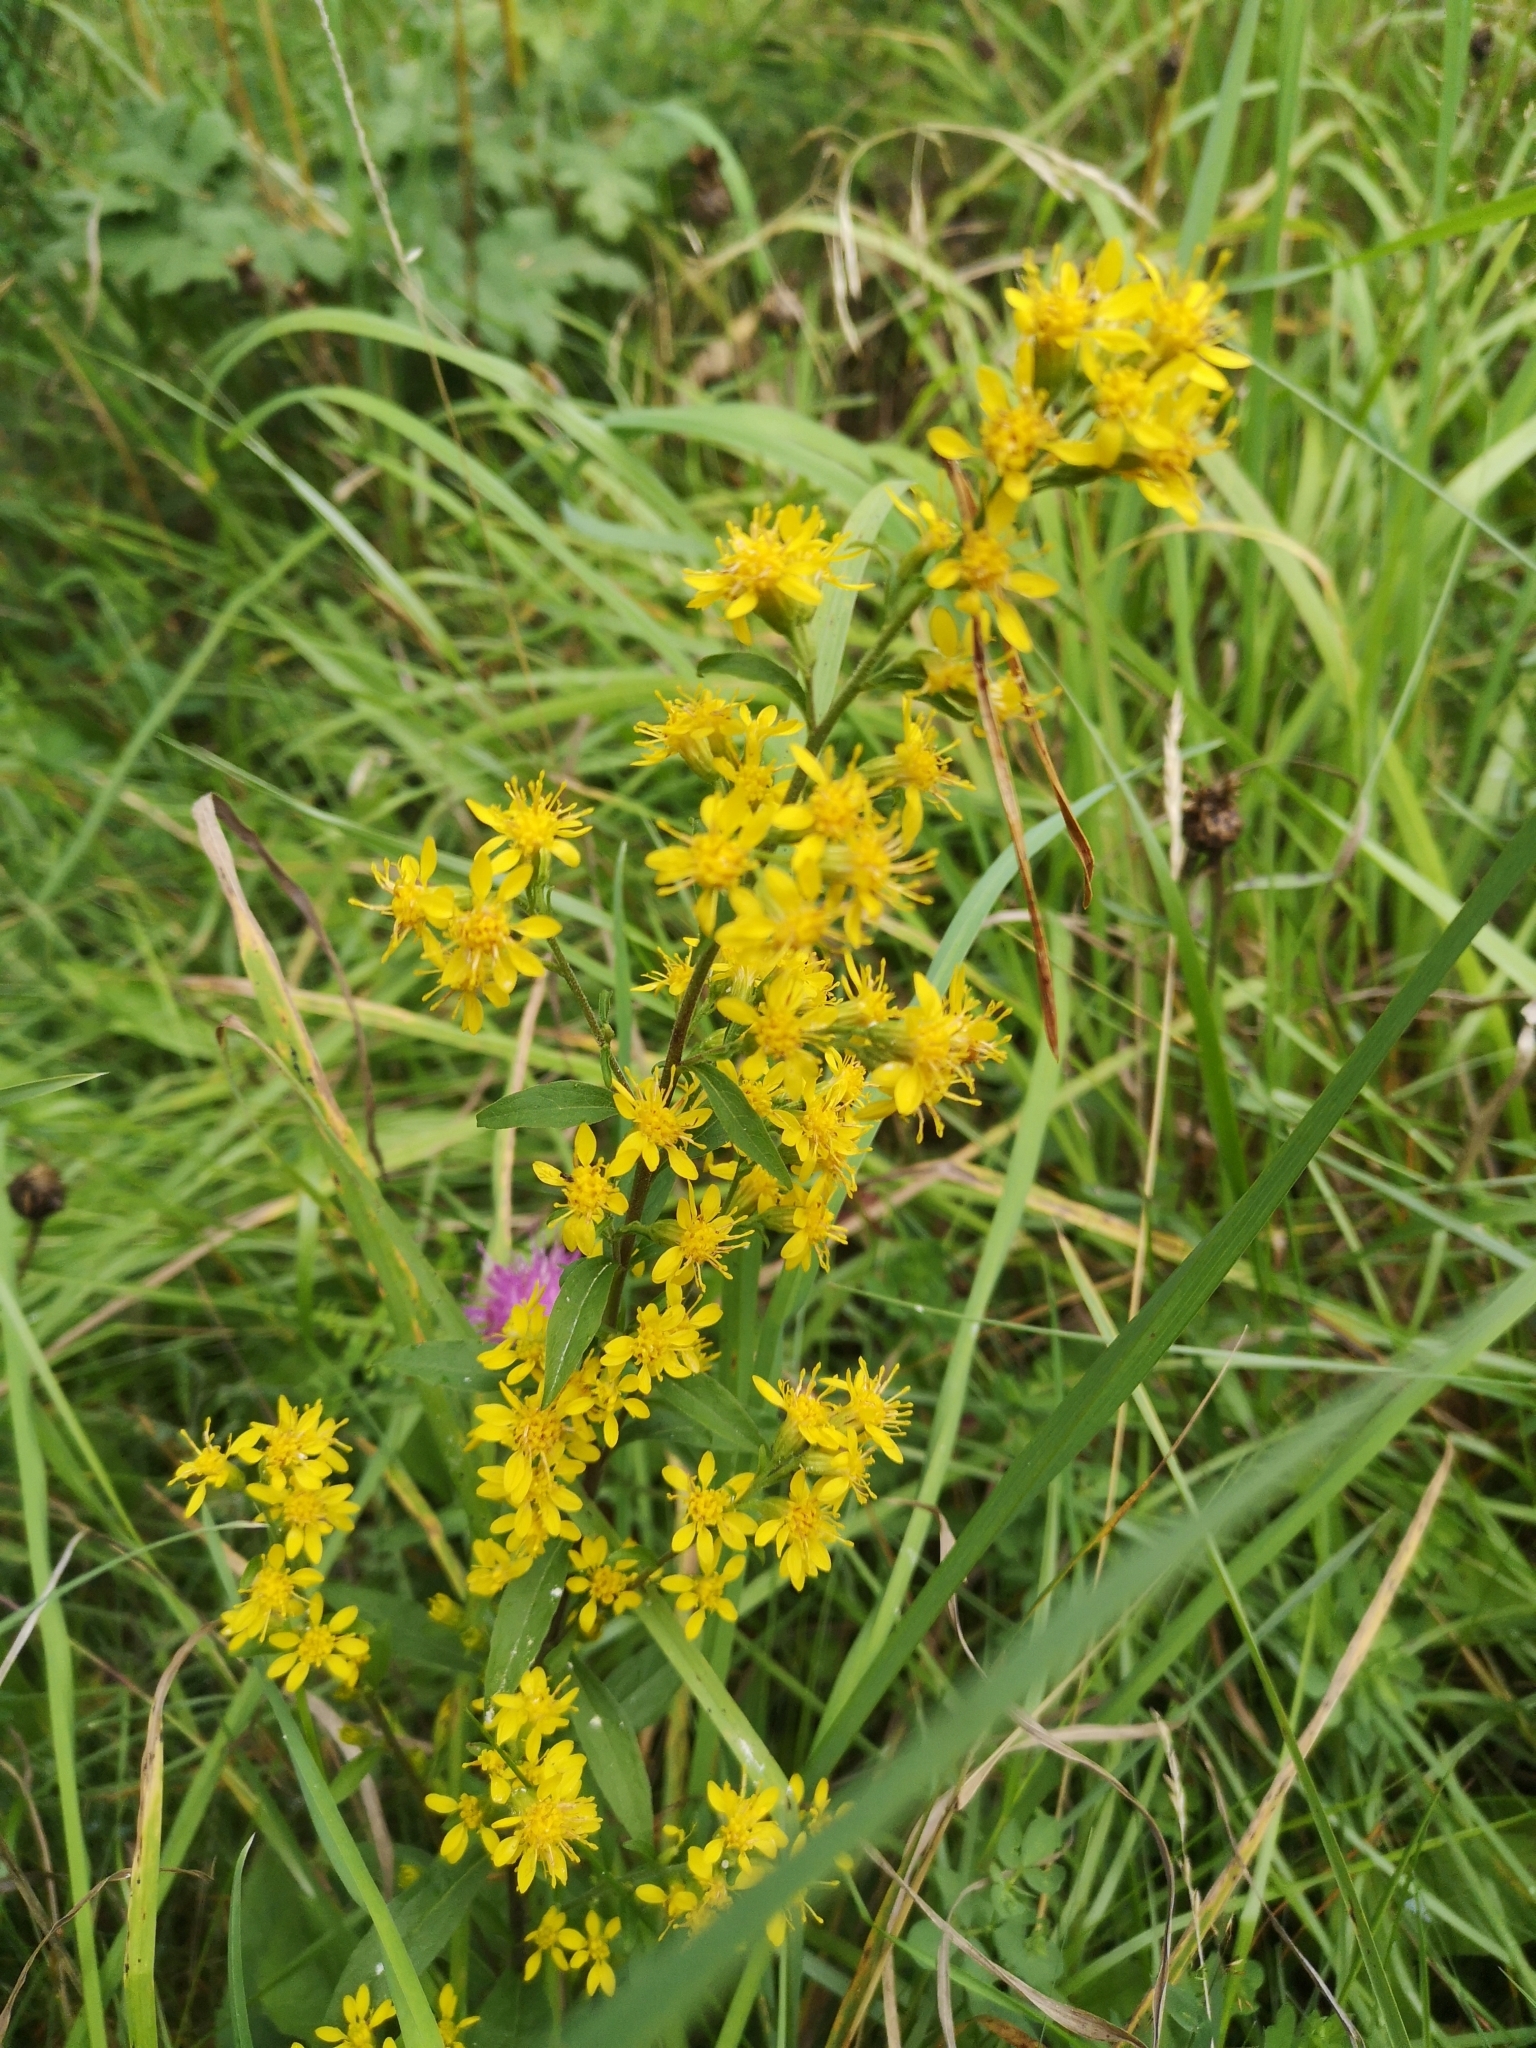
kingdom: Plantae
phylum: Tracheophyta
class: Magnoliopsida
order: Asterales
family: Asteraceae
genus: Solidago
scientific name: Solidago virgaurea
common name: Goldenrod
